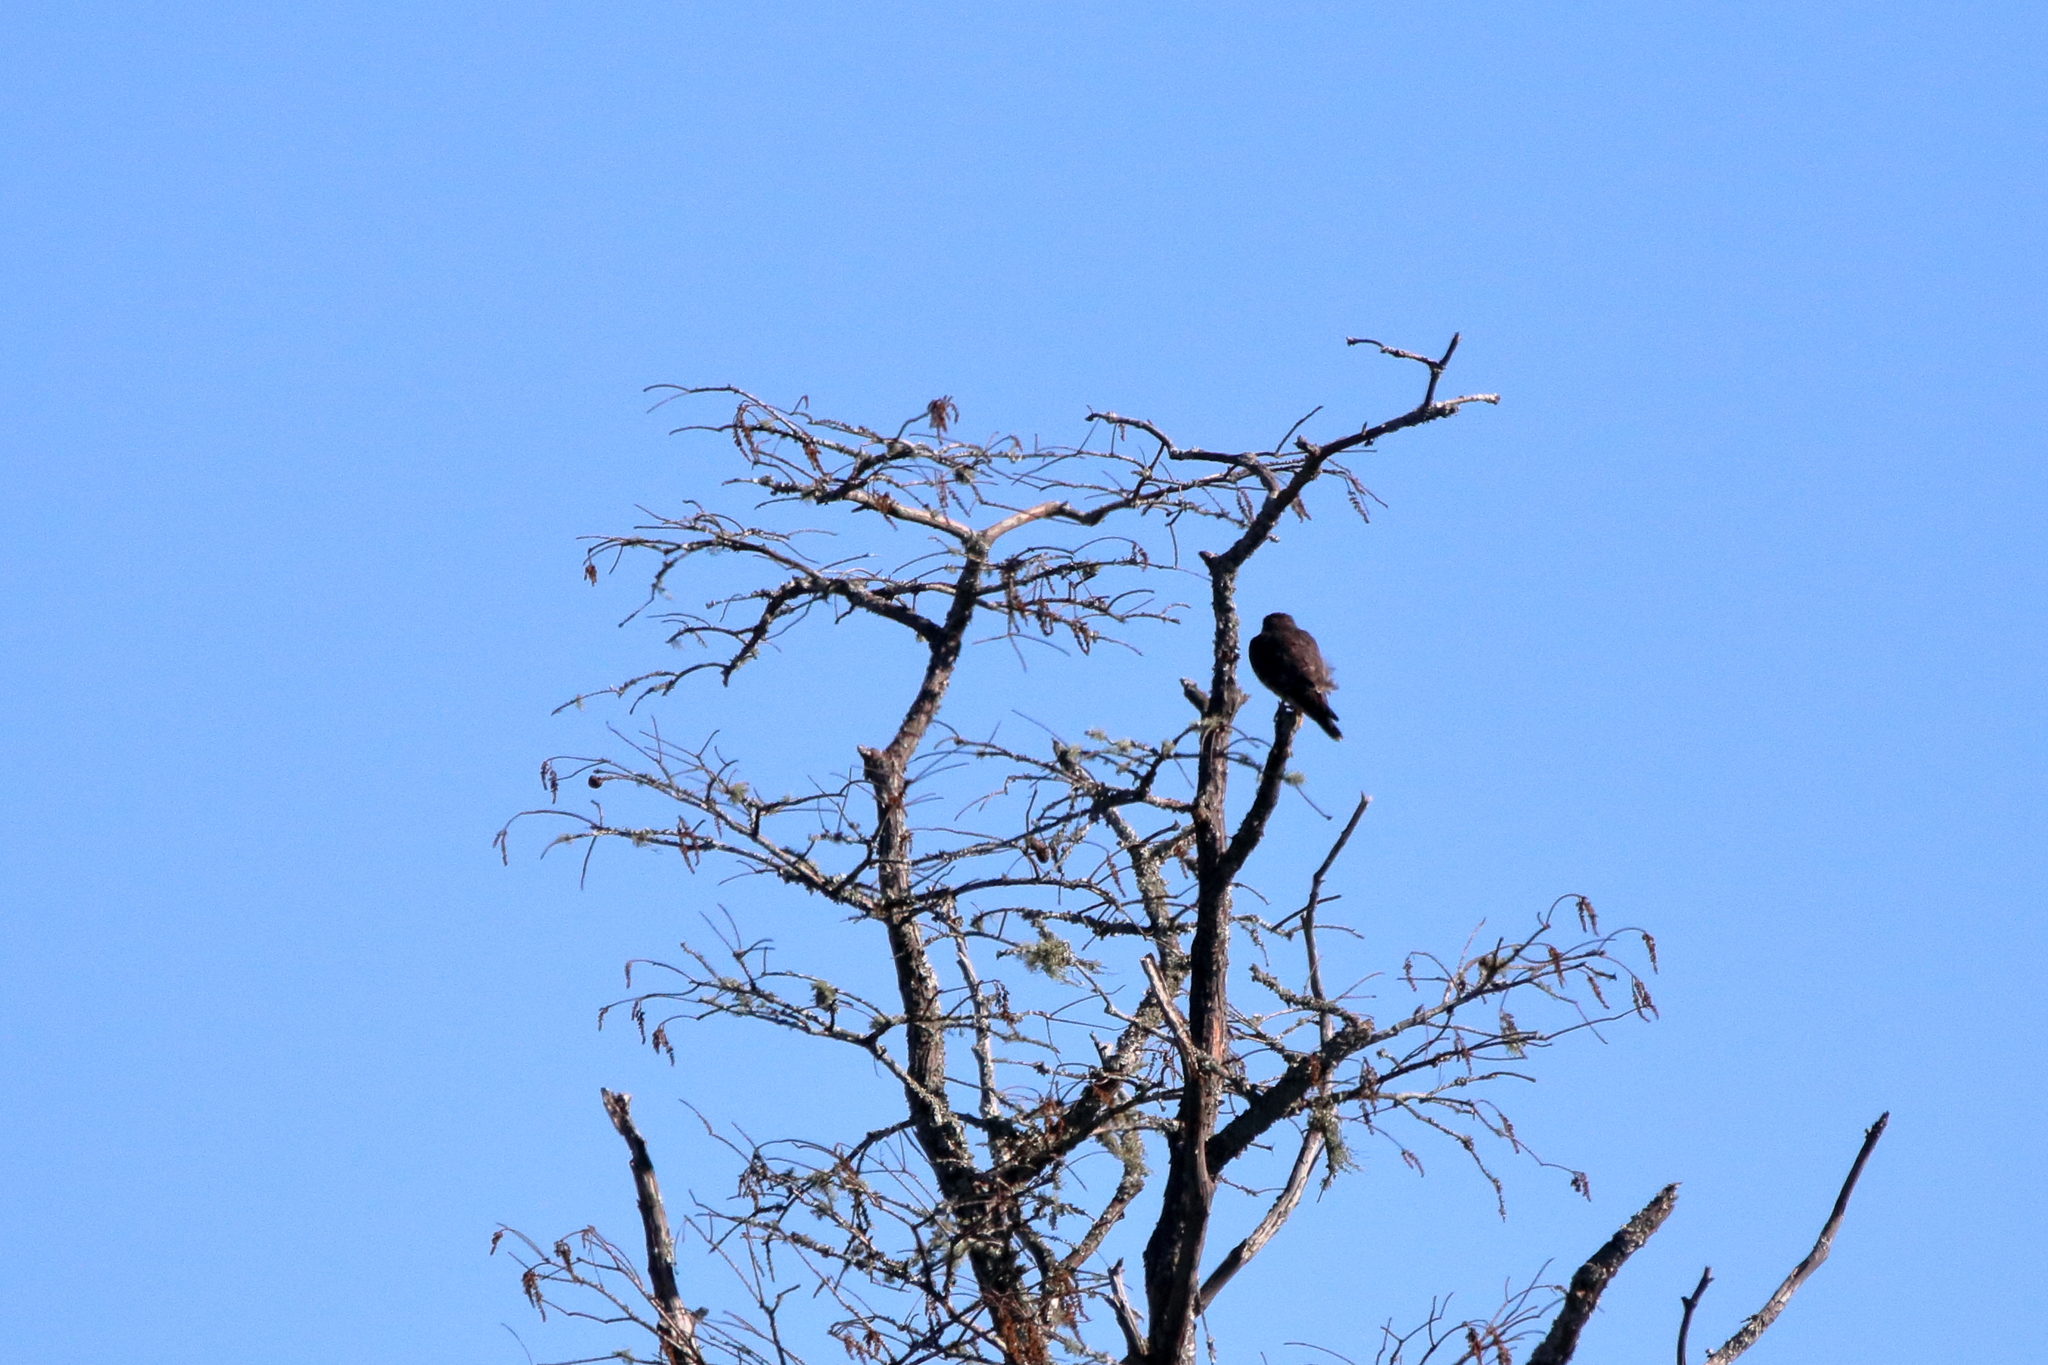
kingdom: Animalia
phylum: Chordata
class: Aves
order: Falconiformes
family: Falconidae
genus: Falco
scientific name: Falco columbarius
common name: Merlin
